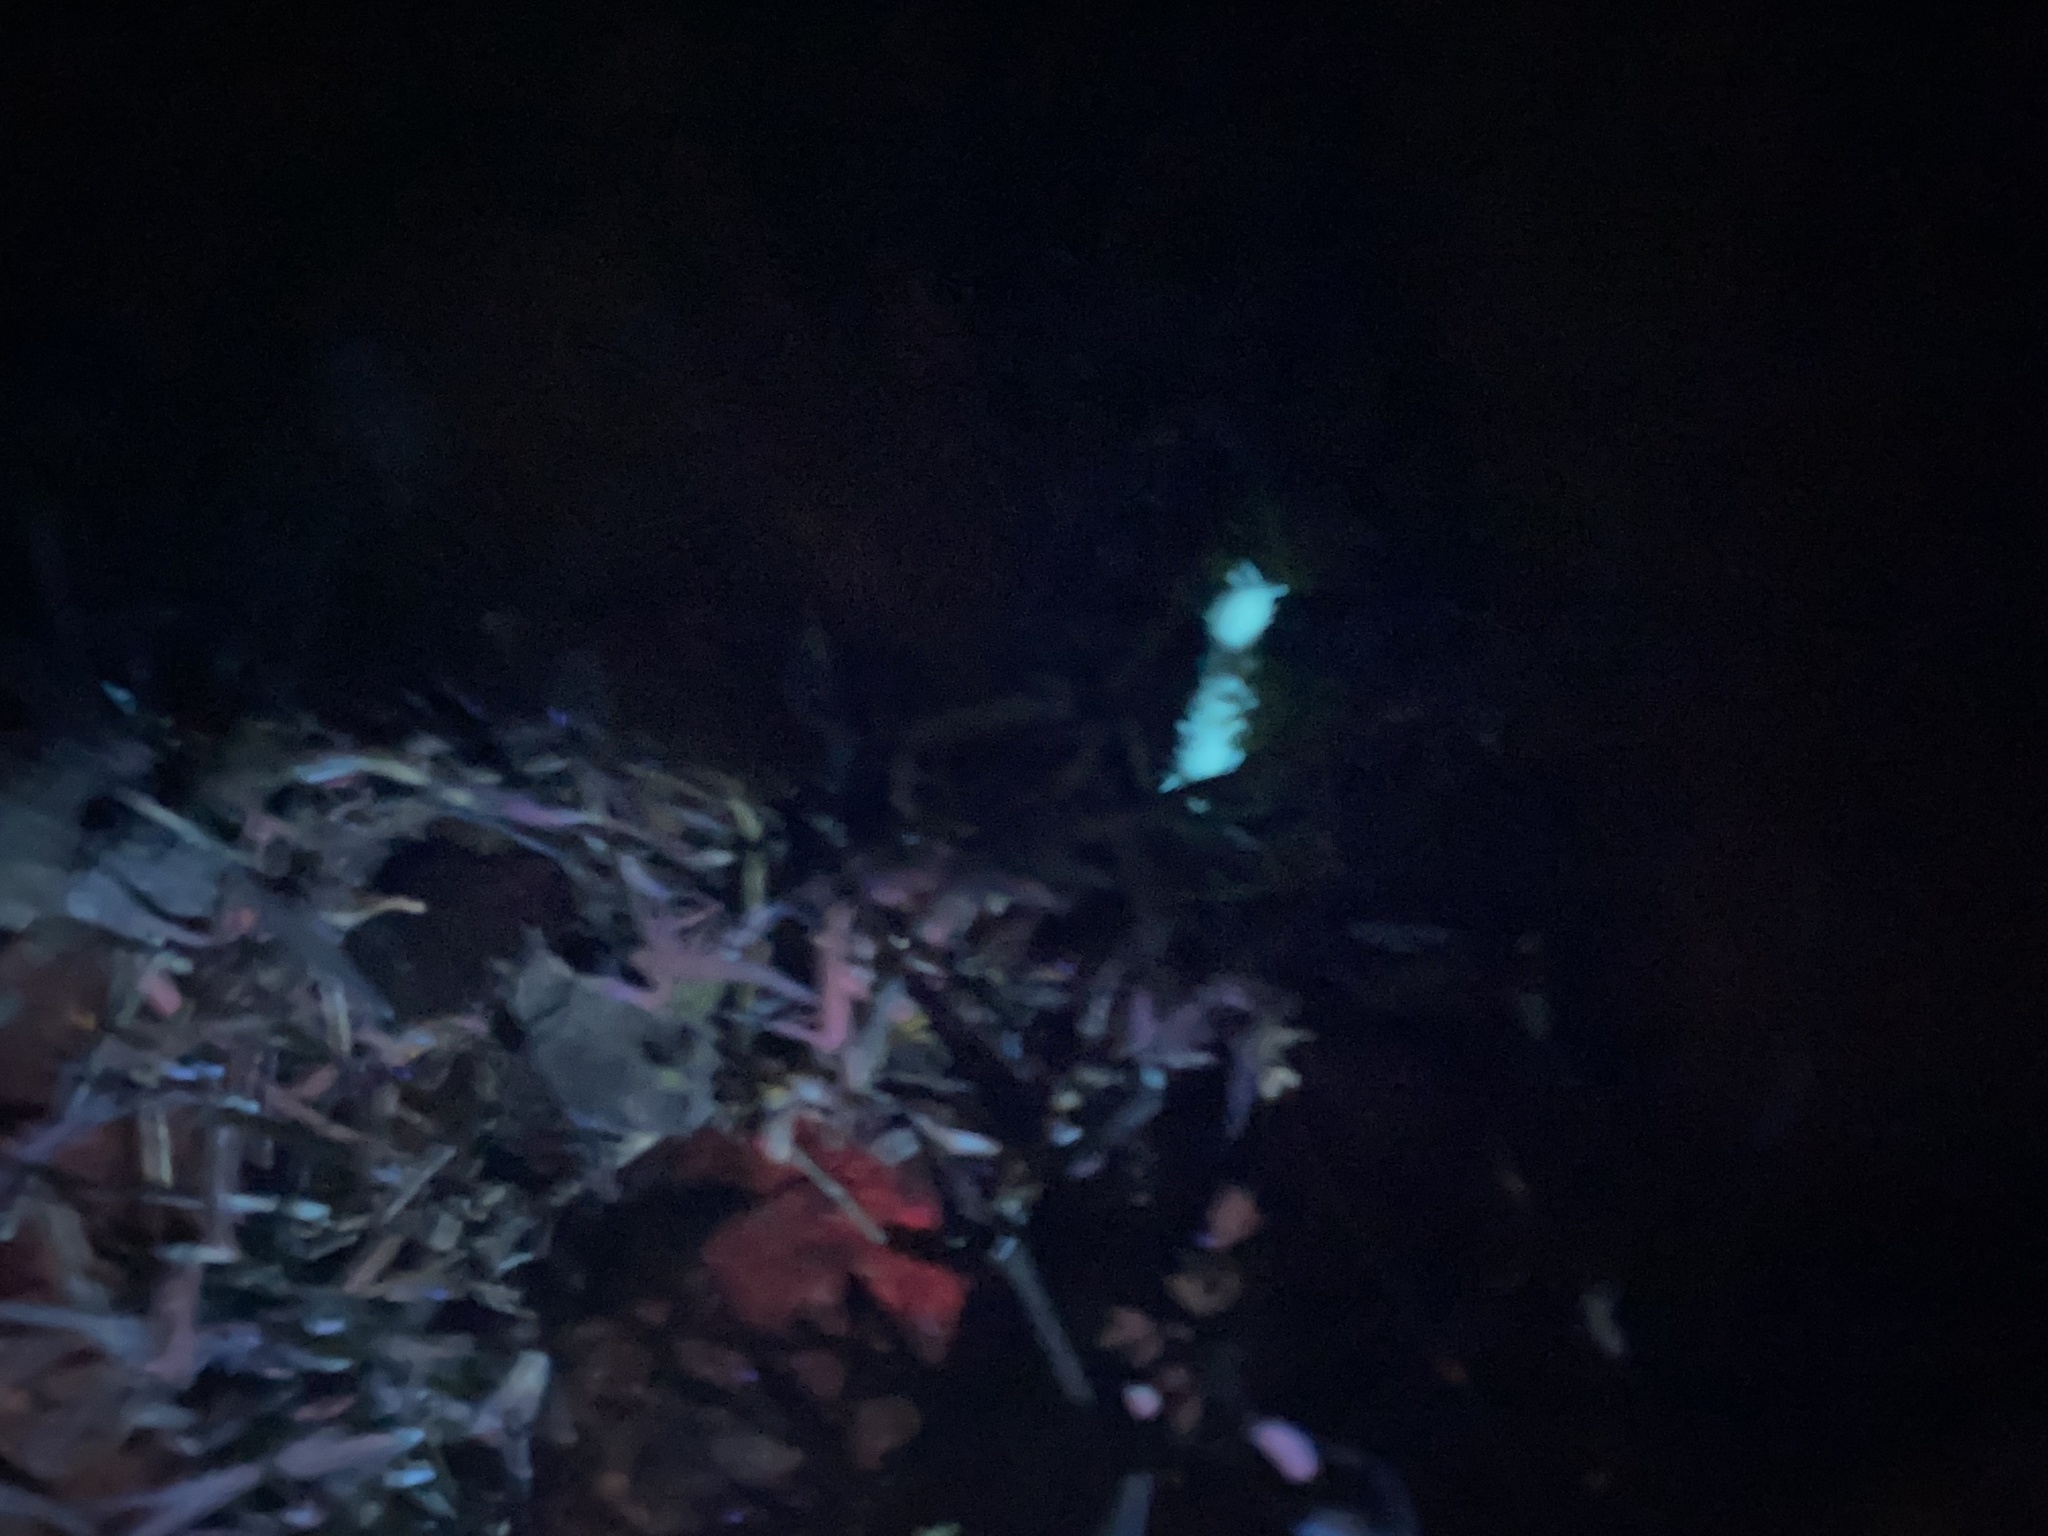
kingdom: Animalia
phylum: Arthropoda
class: Diplopoda
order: Polydesmida
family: Xystodesmidae
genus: Xystocheir
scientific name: Xystocheir dissecta
